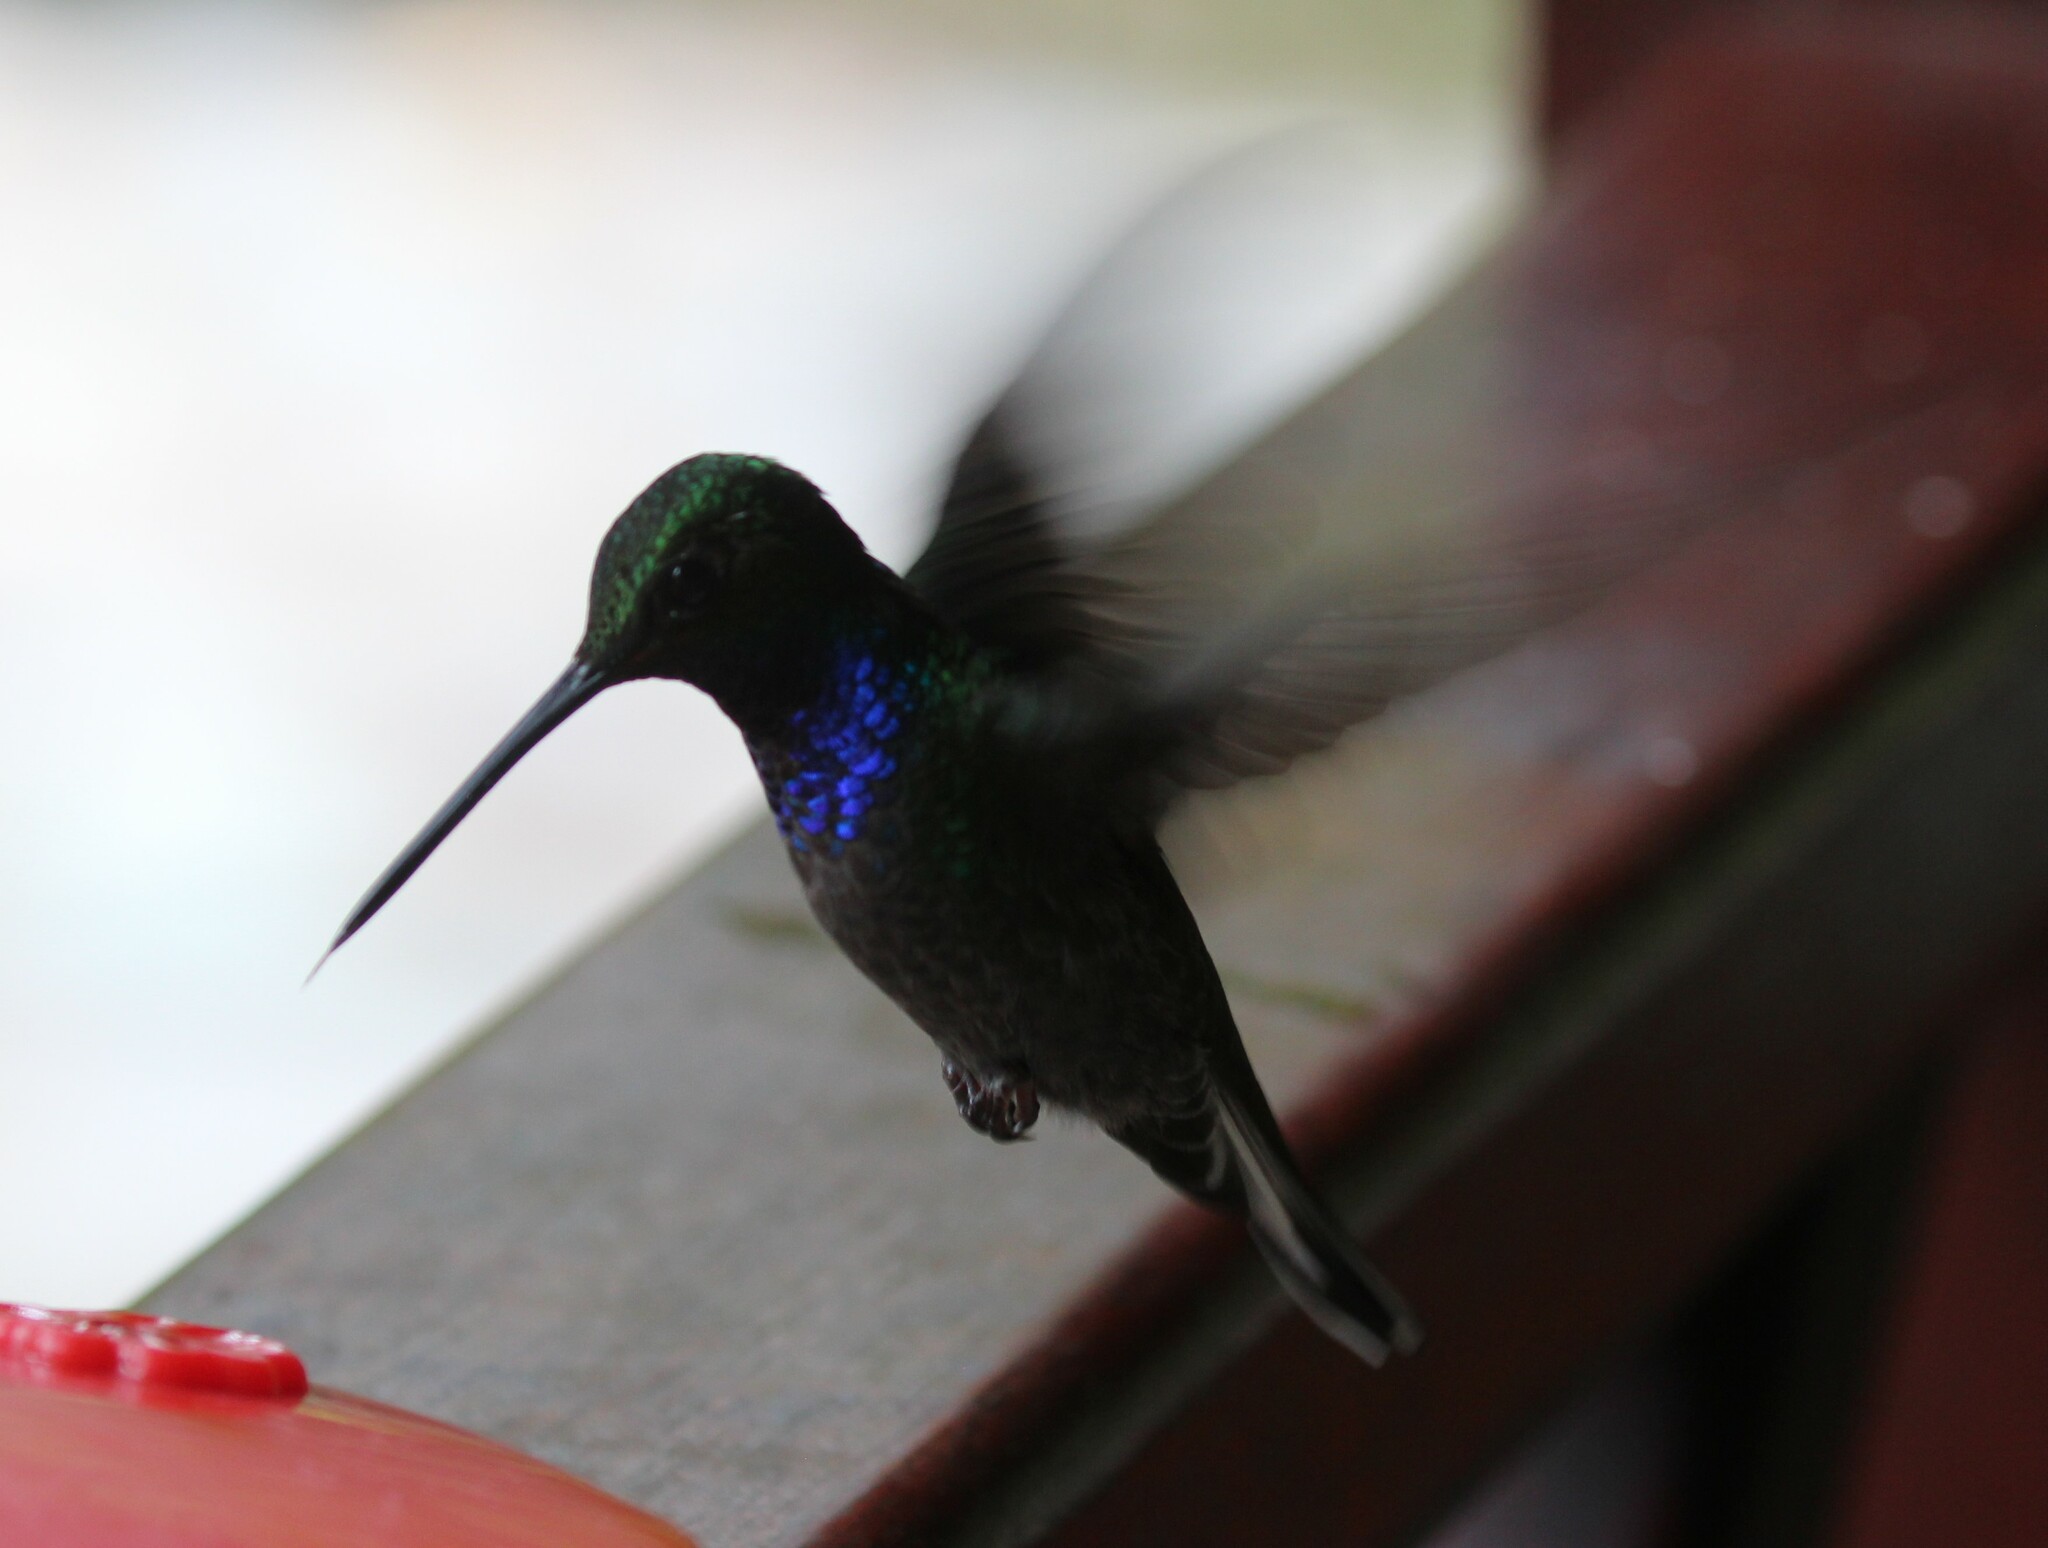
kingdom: Animalia
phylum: Chordata
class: Aves
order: Apodiformes
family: Trochilidae
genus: Urochroa
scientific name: Urochroa leucura
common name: Green-backed hillstar
